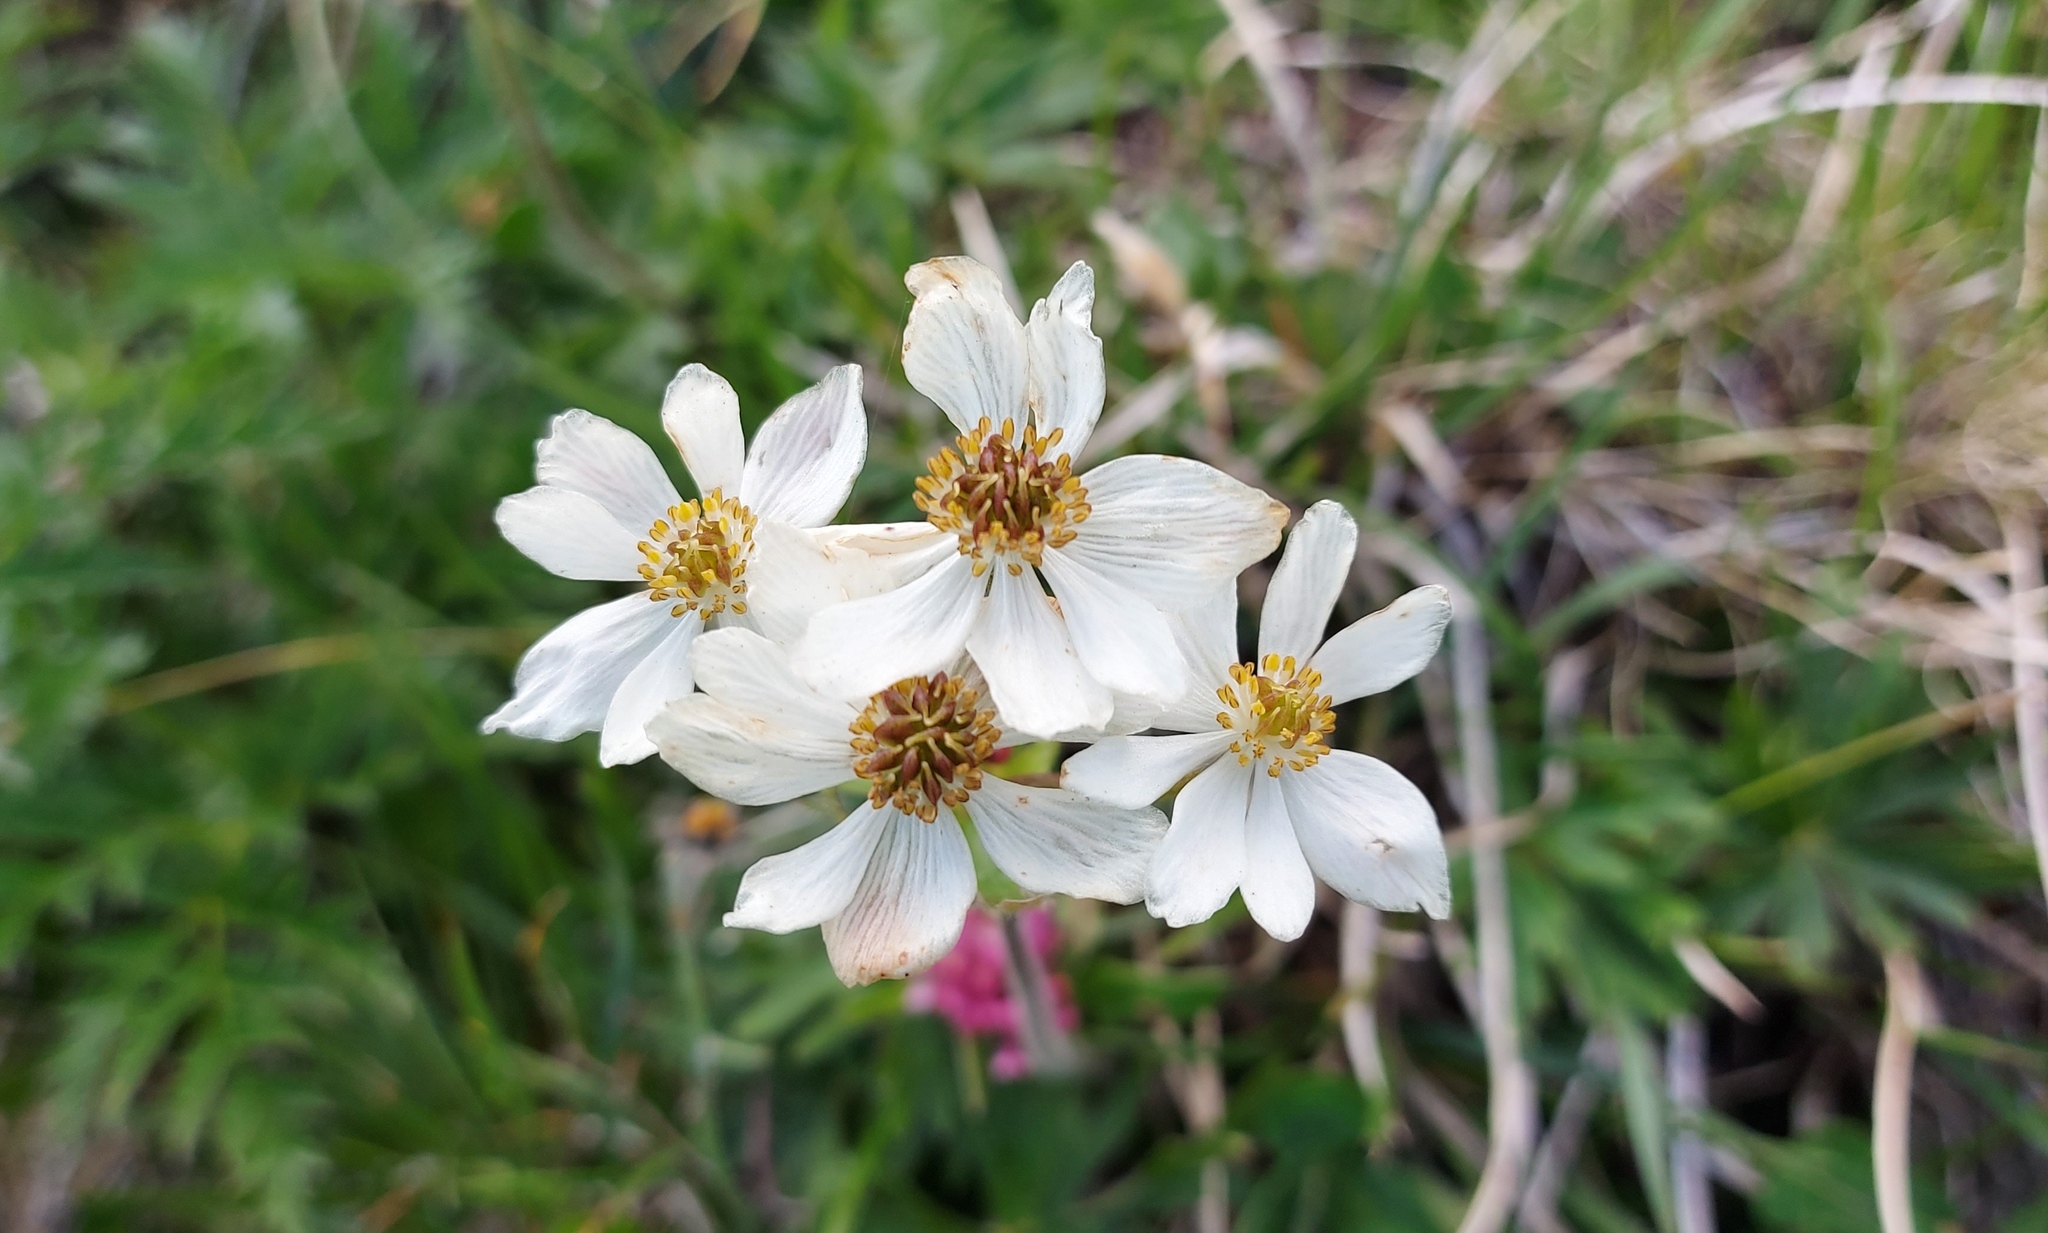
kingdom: Plantae
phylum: Tracheophyta
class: Magnoliopsida
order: Ranunculales
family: Ranunculaceae
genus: Anemonastrum
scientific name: Anemonastrum narcissiflorum
